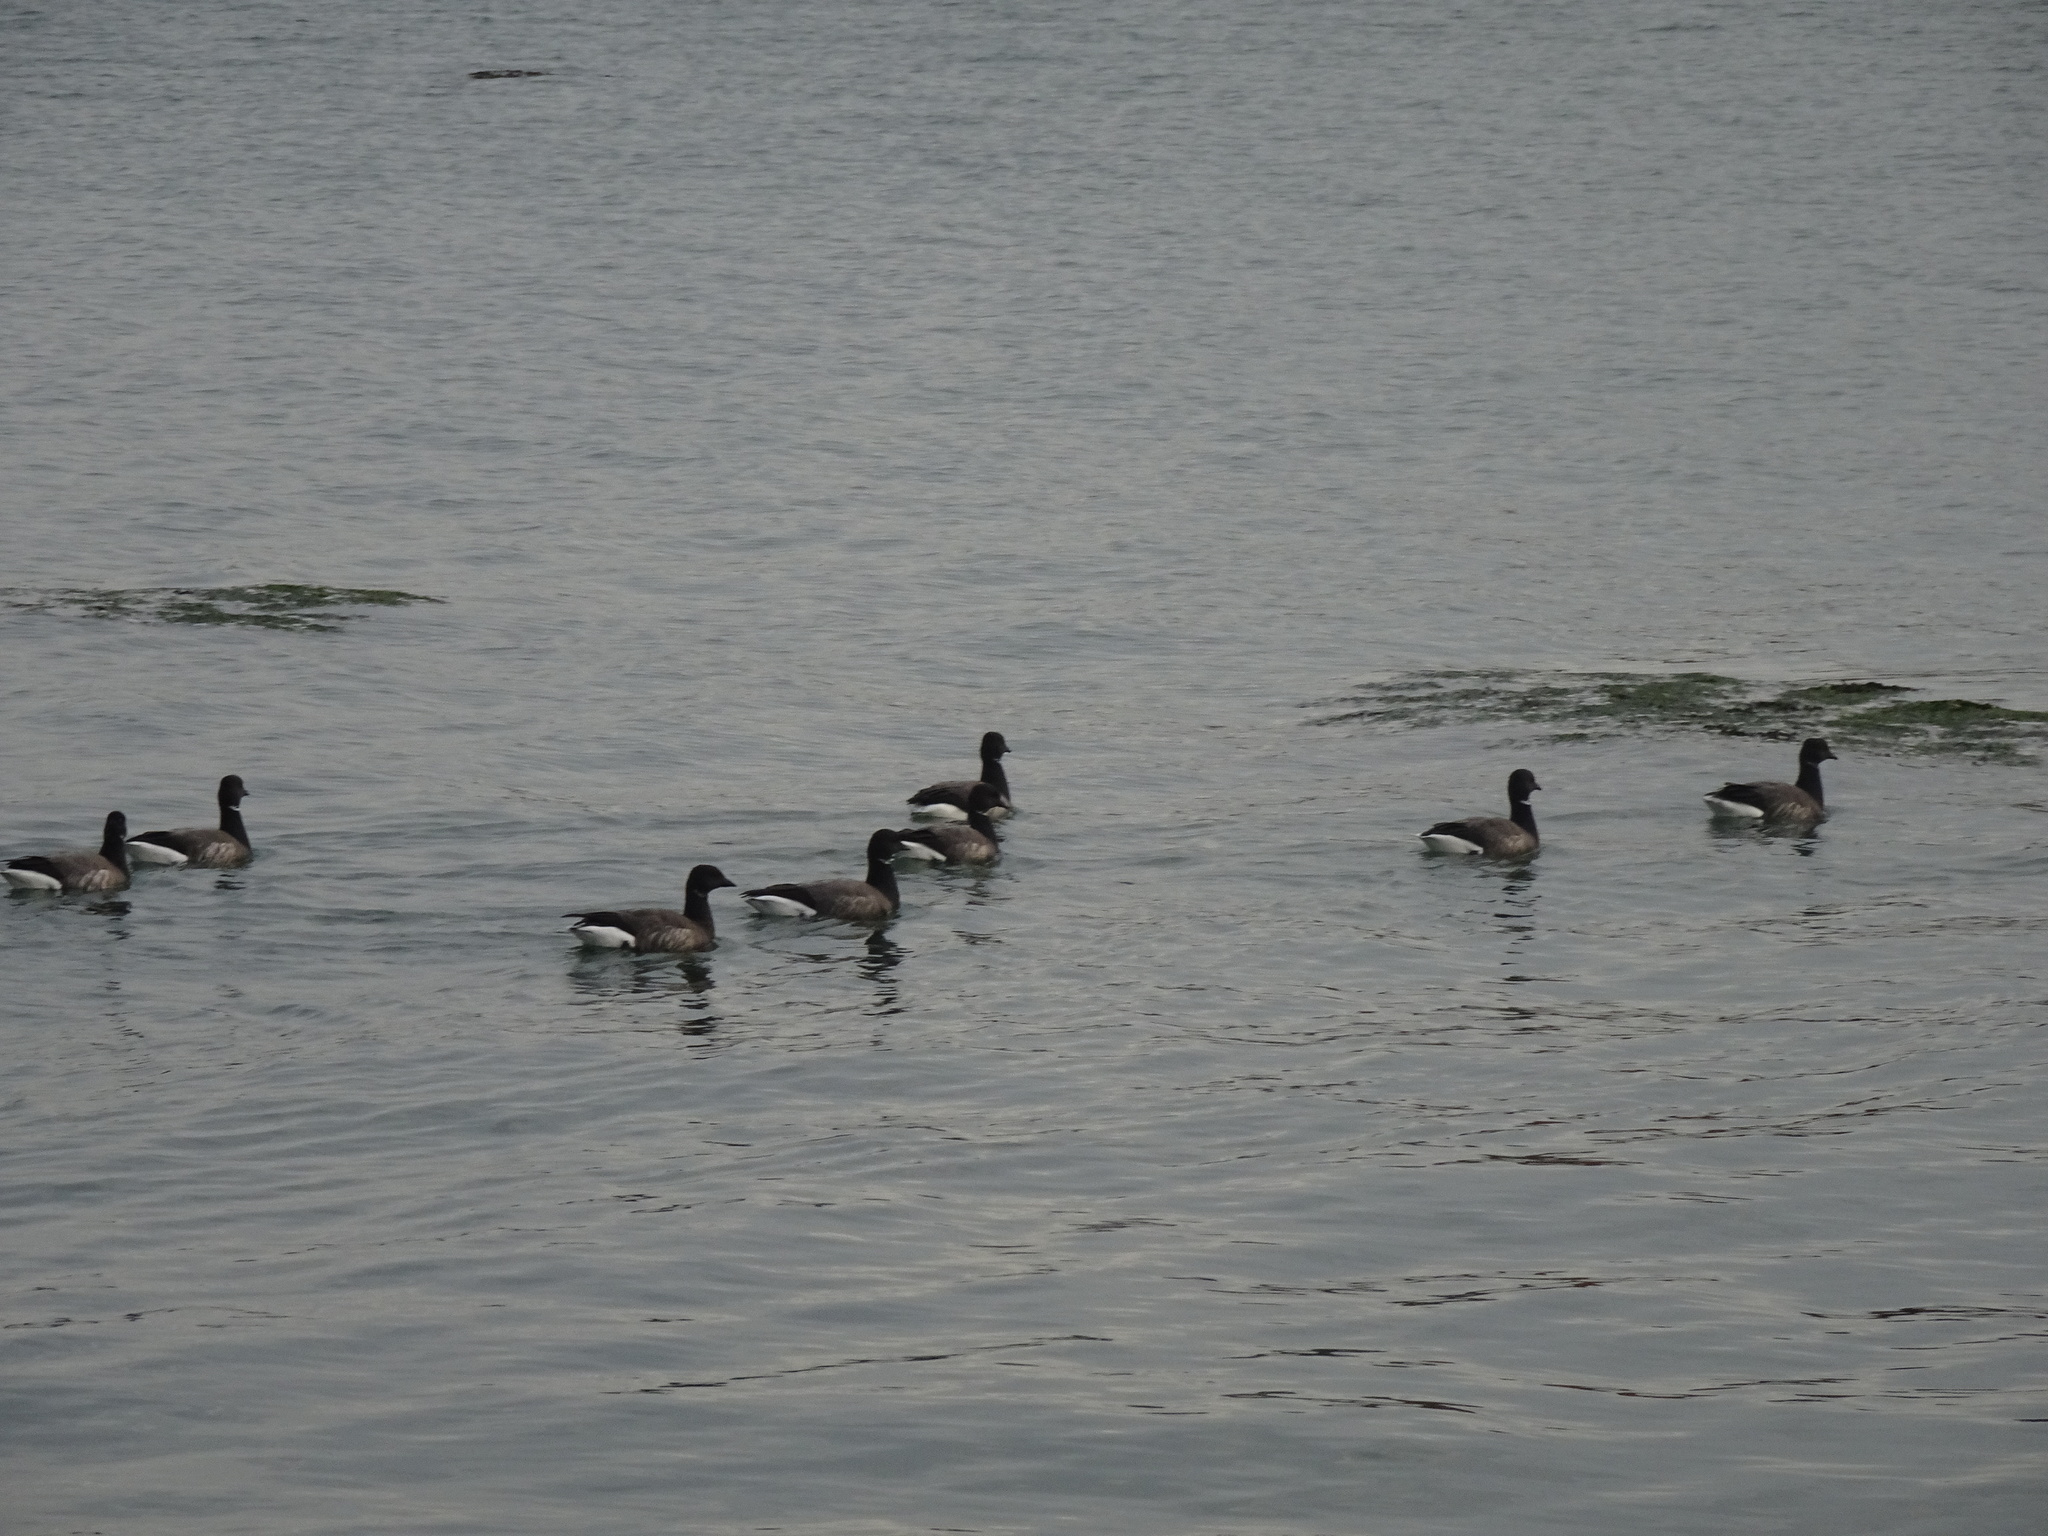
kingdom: Animalia
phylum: Chordata
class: Aves
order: Anseriformes
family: Anatidae
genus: Branta
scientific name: Branta bernicla
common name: Brant goose
